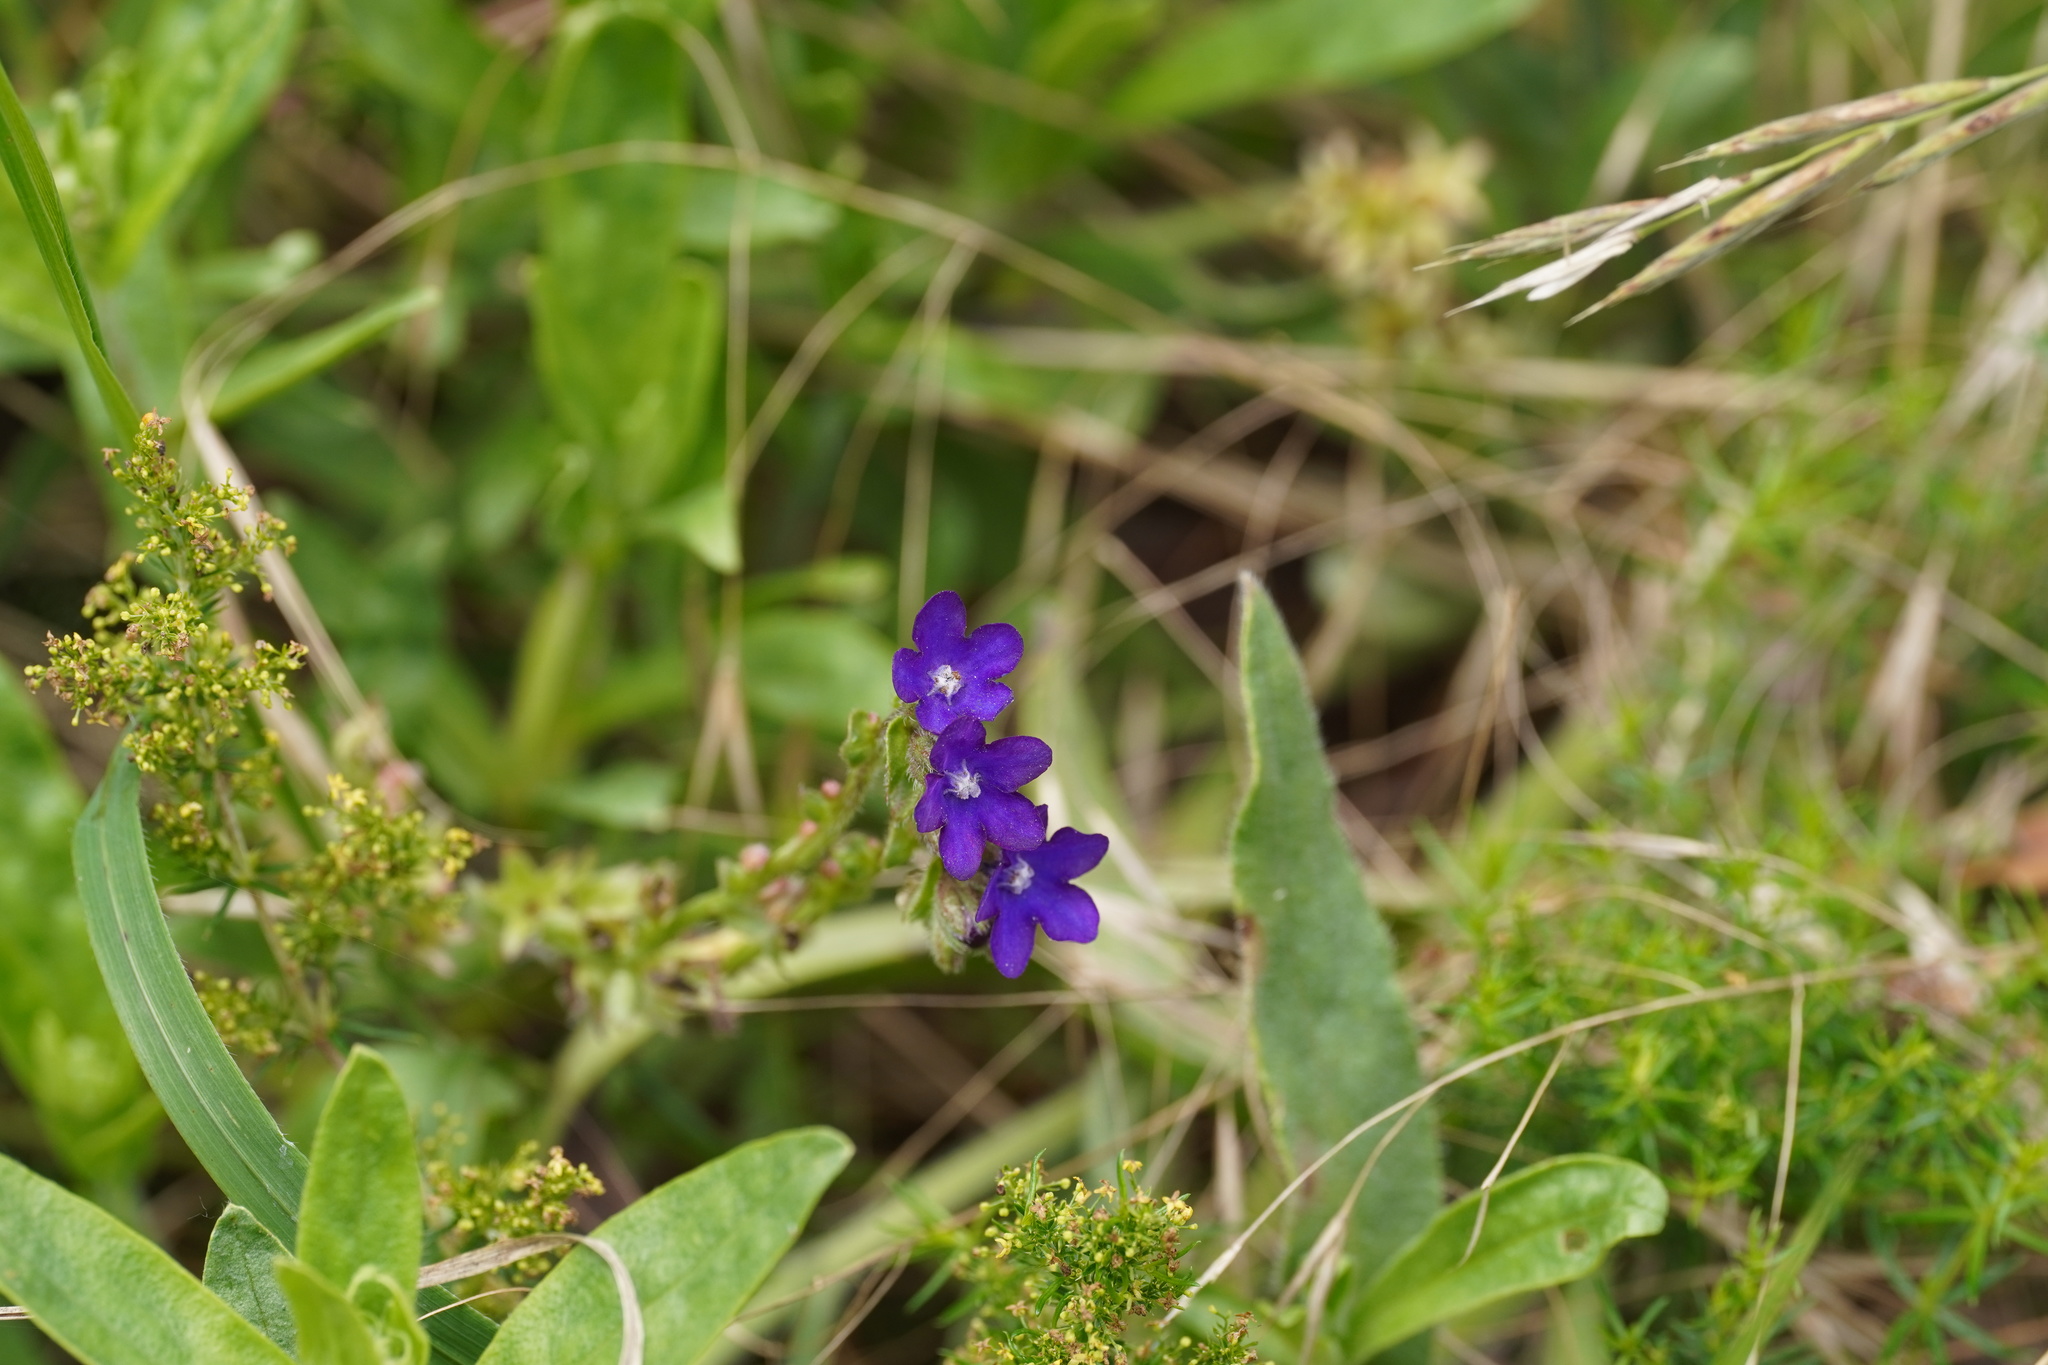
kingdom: Plantae
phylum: Tracheophyta
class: Magnoliopsida
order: Boraginales
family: Boraginaceae
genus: Anchusa
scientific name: Anchusa officinalis
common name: Alkanet
